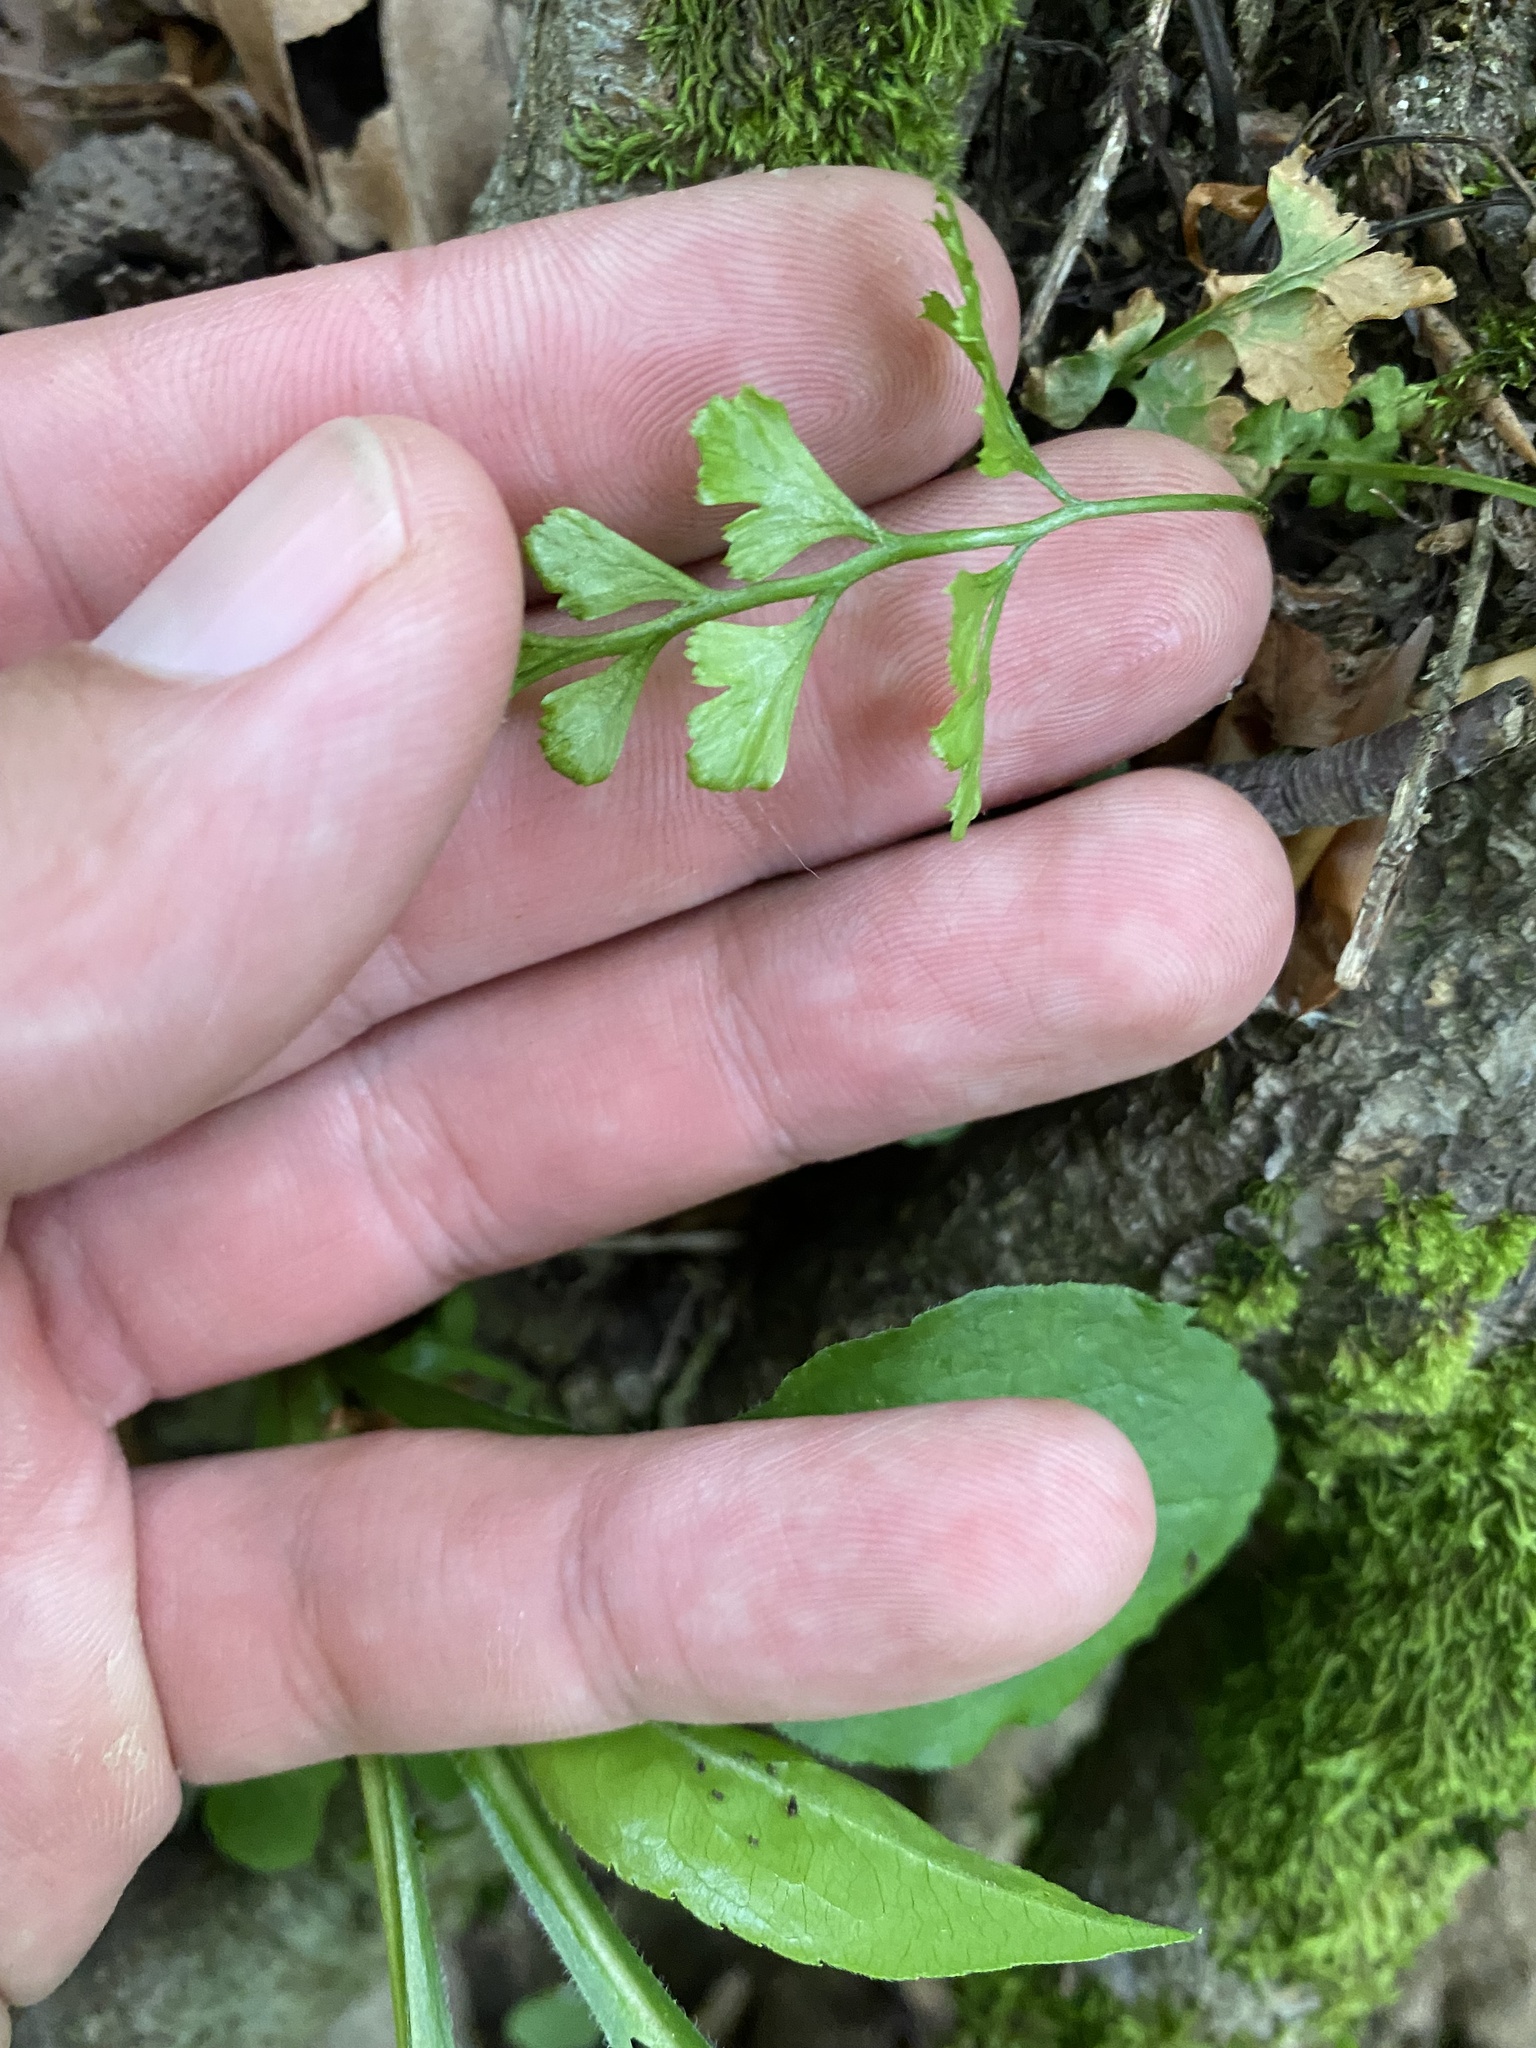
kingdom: Plantae
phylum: Tracheophyta
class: Polypodiopsida
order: Polypodiales
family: Aspleniaceae
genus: Asplenium
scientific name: Asplenium adiantum-nigrum
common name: Black spleenwort
